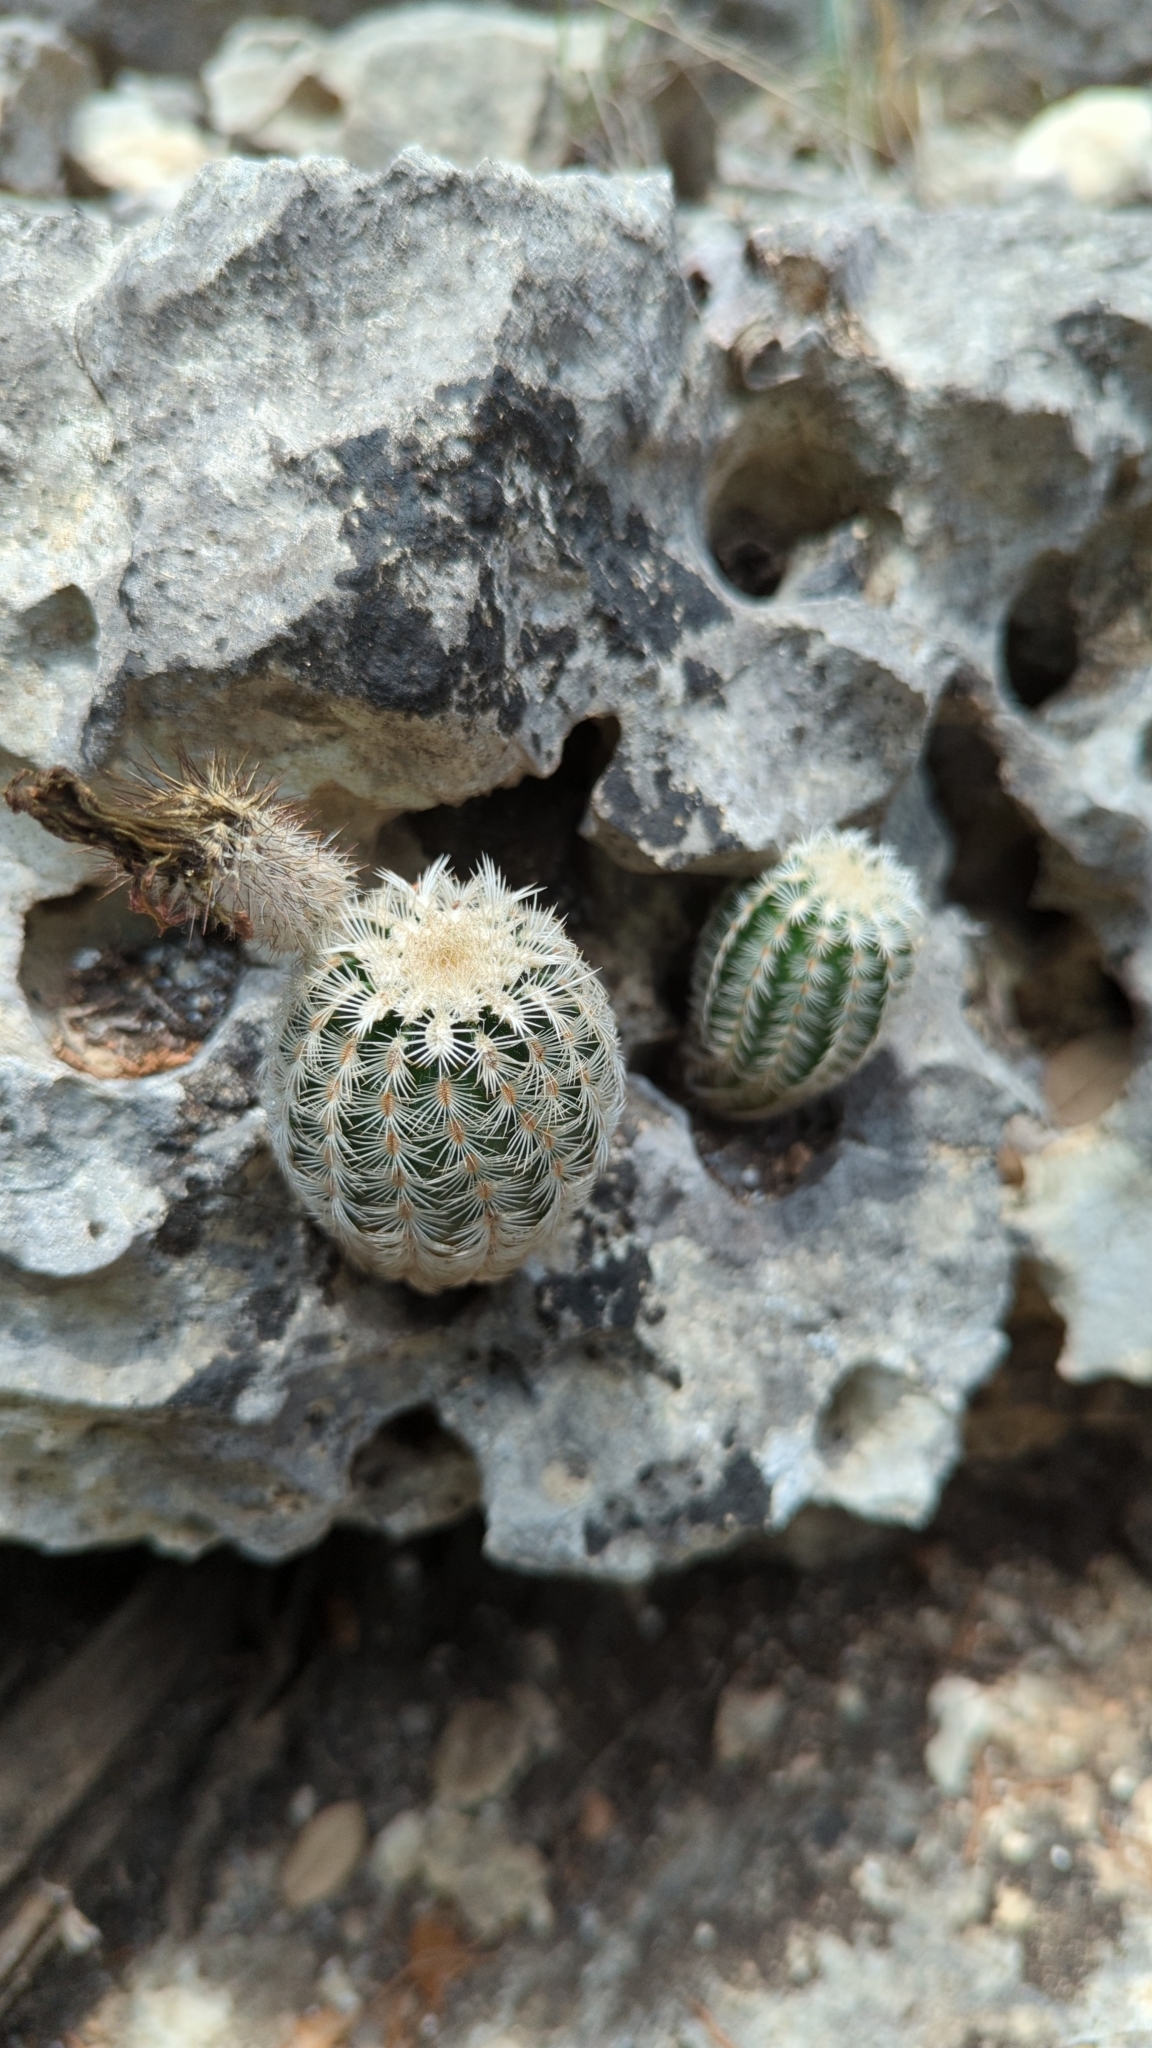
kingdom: Plantae
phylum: Tracheophyta
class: Magnoliopsida
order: Caryophyllales
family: Cactaceae
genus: Echinocereus
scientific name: Echinocereus reichenbachii
